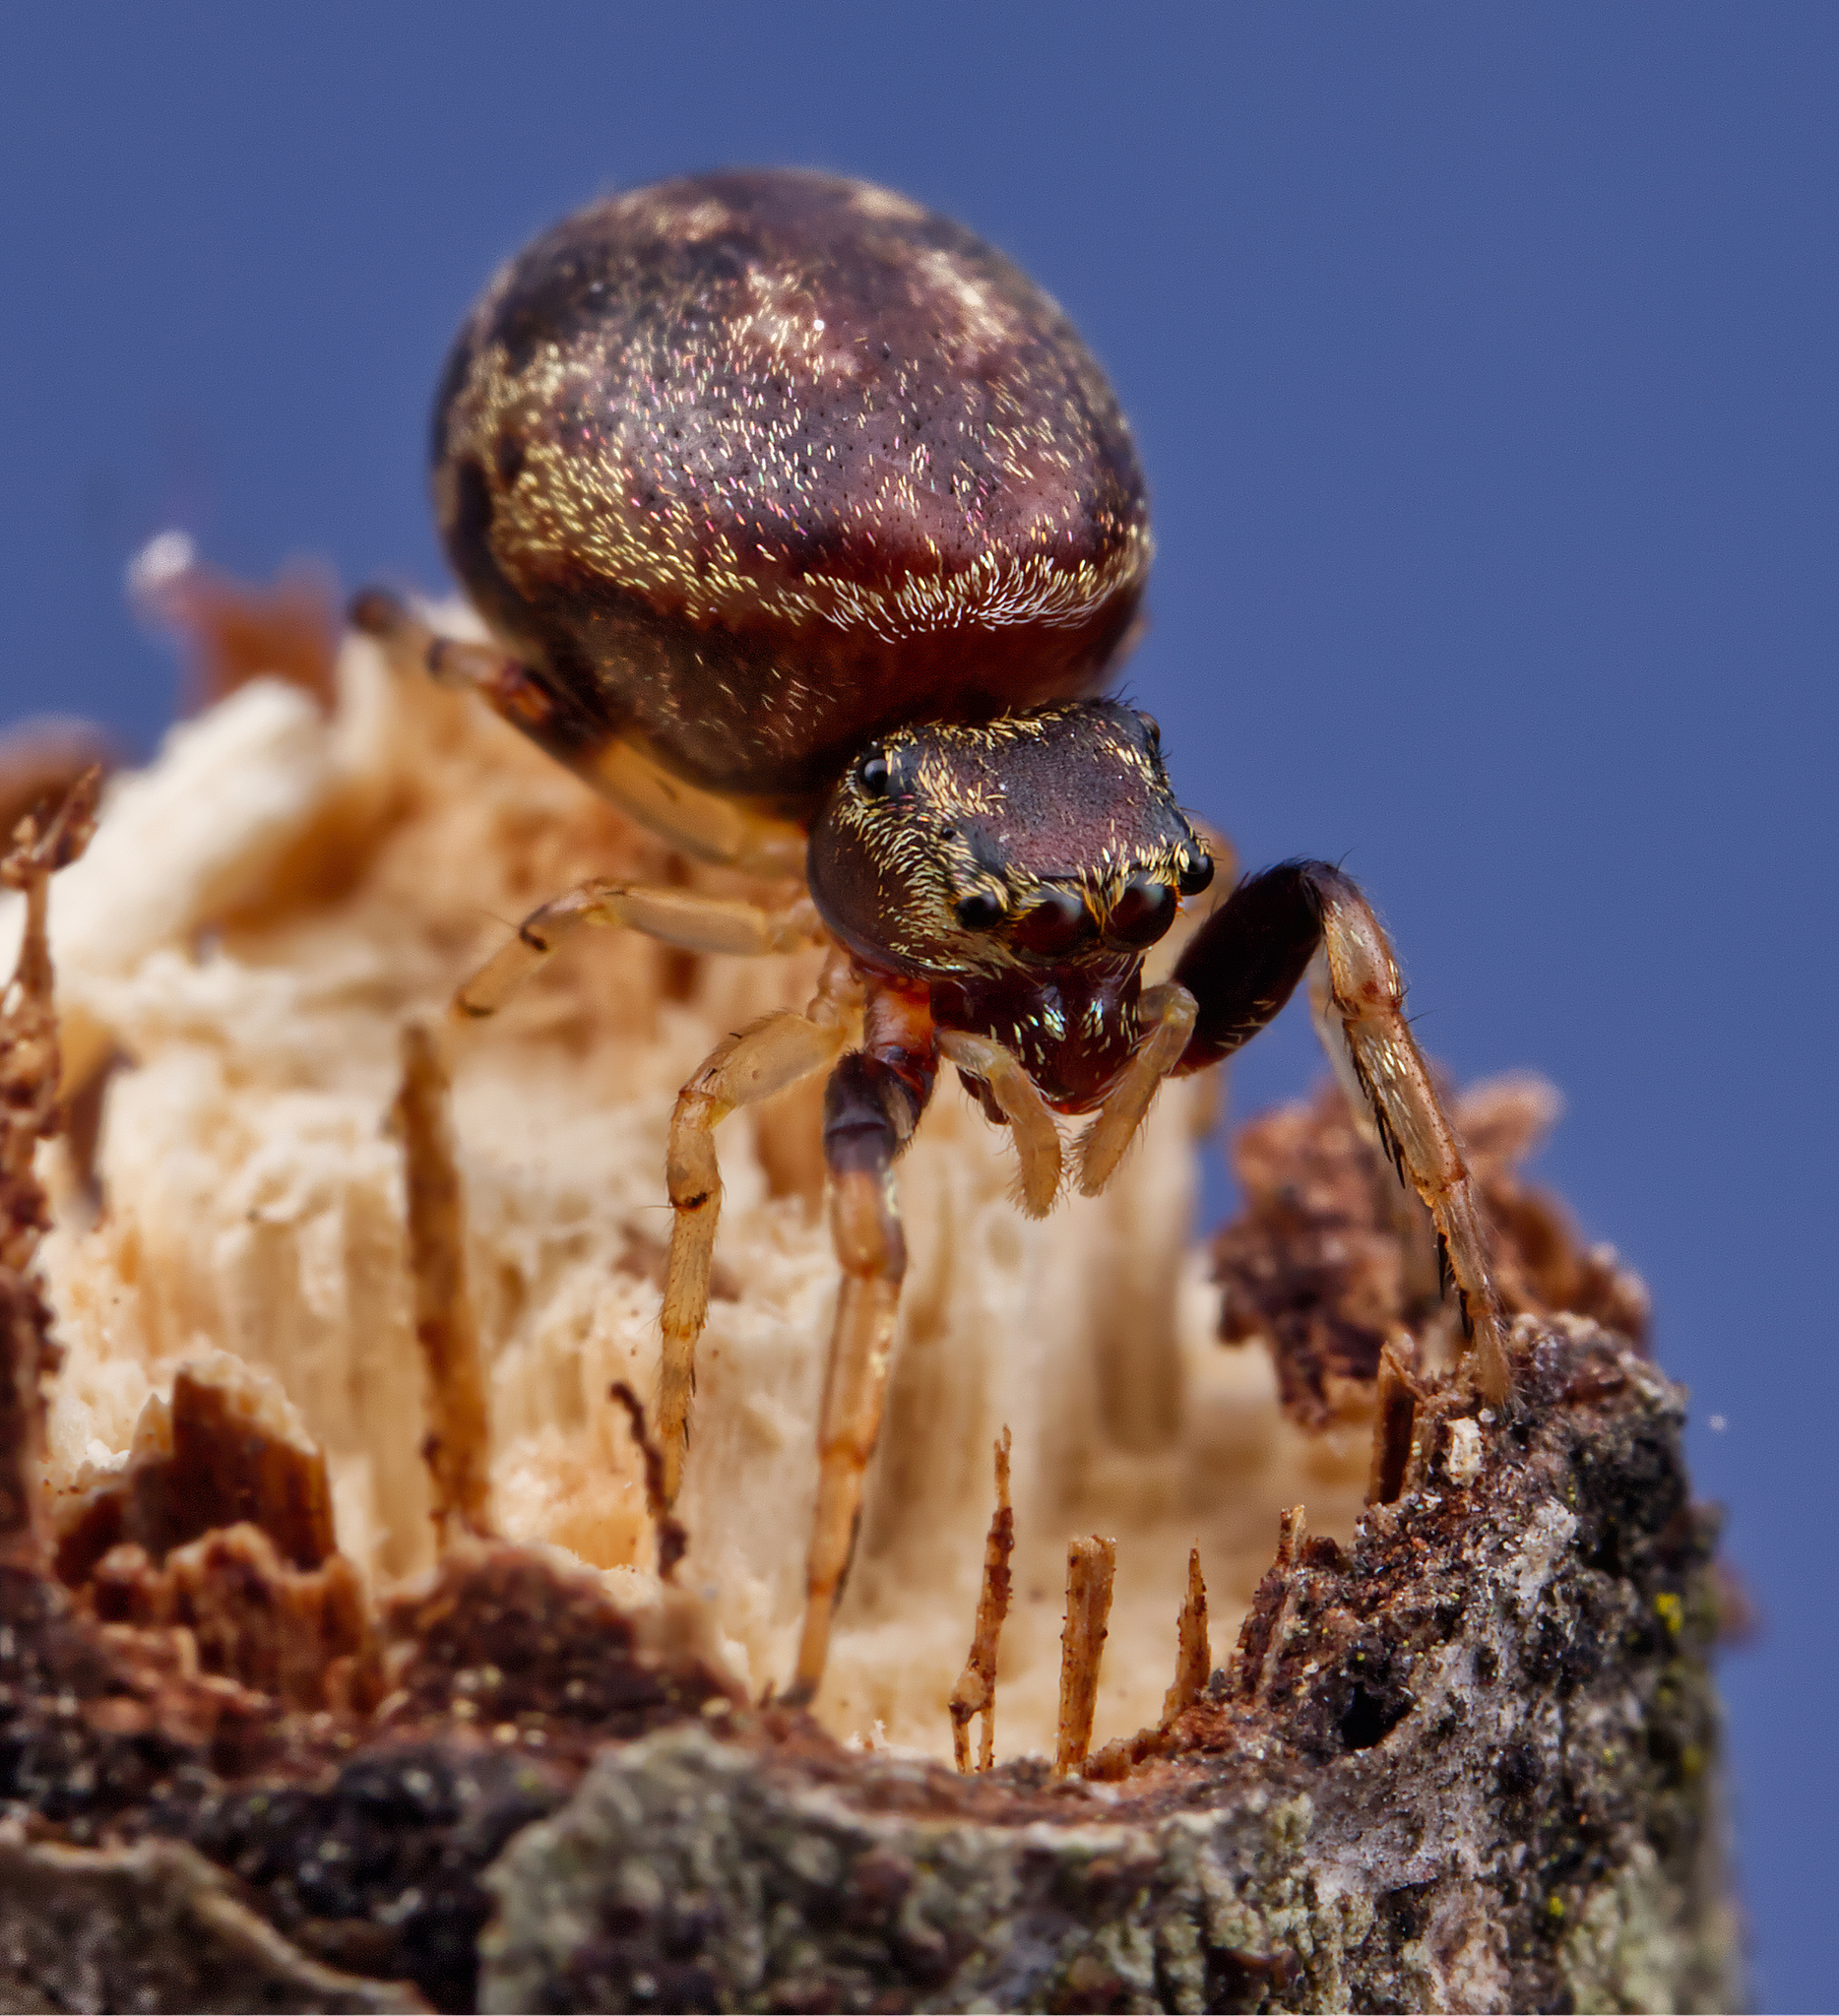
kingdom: Animalia
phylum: Arthropoda
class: Arachnida
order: Araneae
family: Salticidae
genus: Zygoballus
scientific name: Zygoballus rufipes
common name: Jumping spiders
